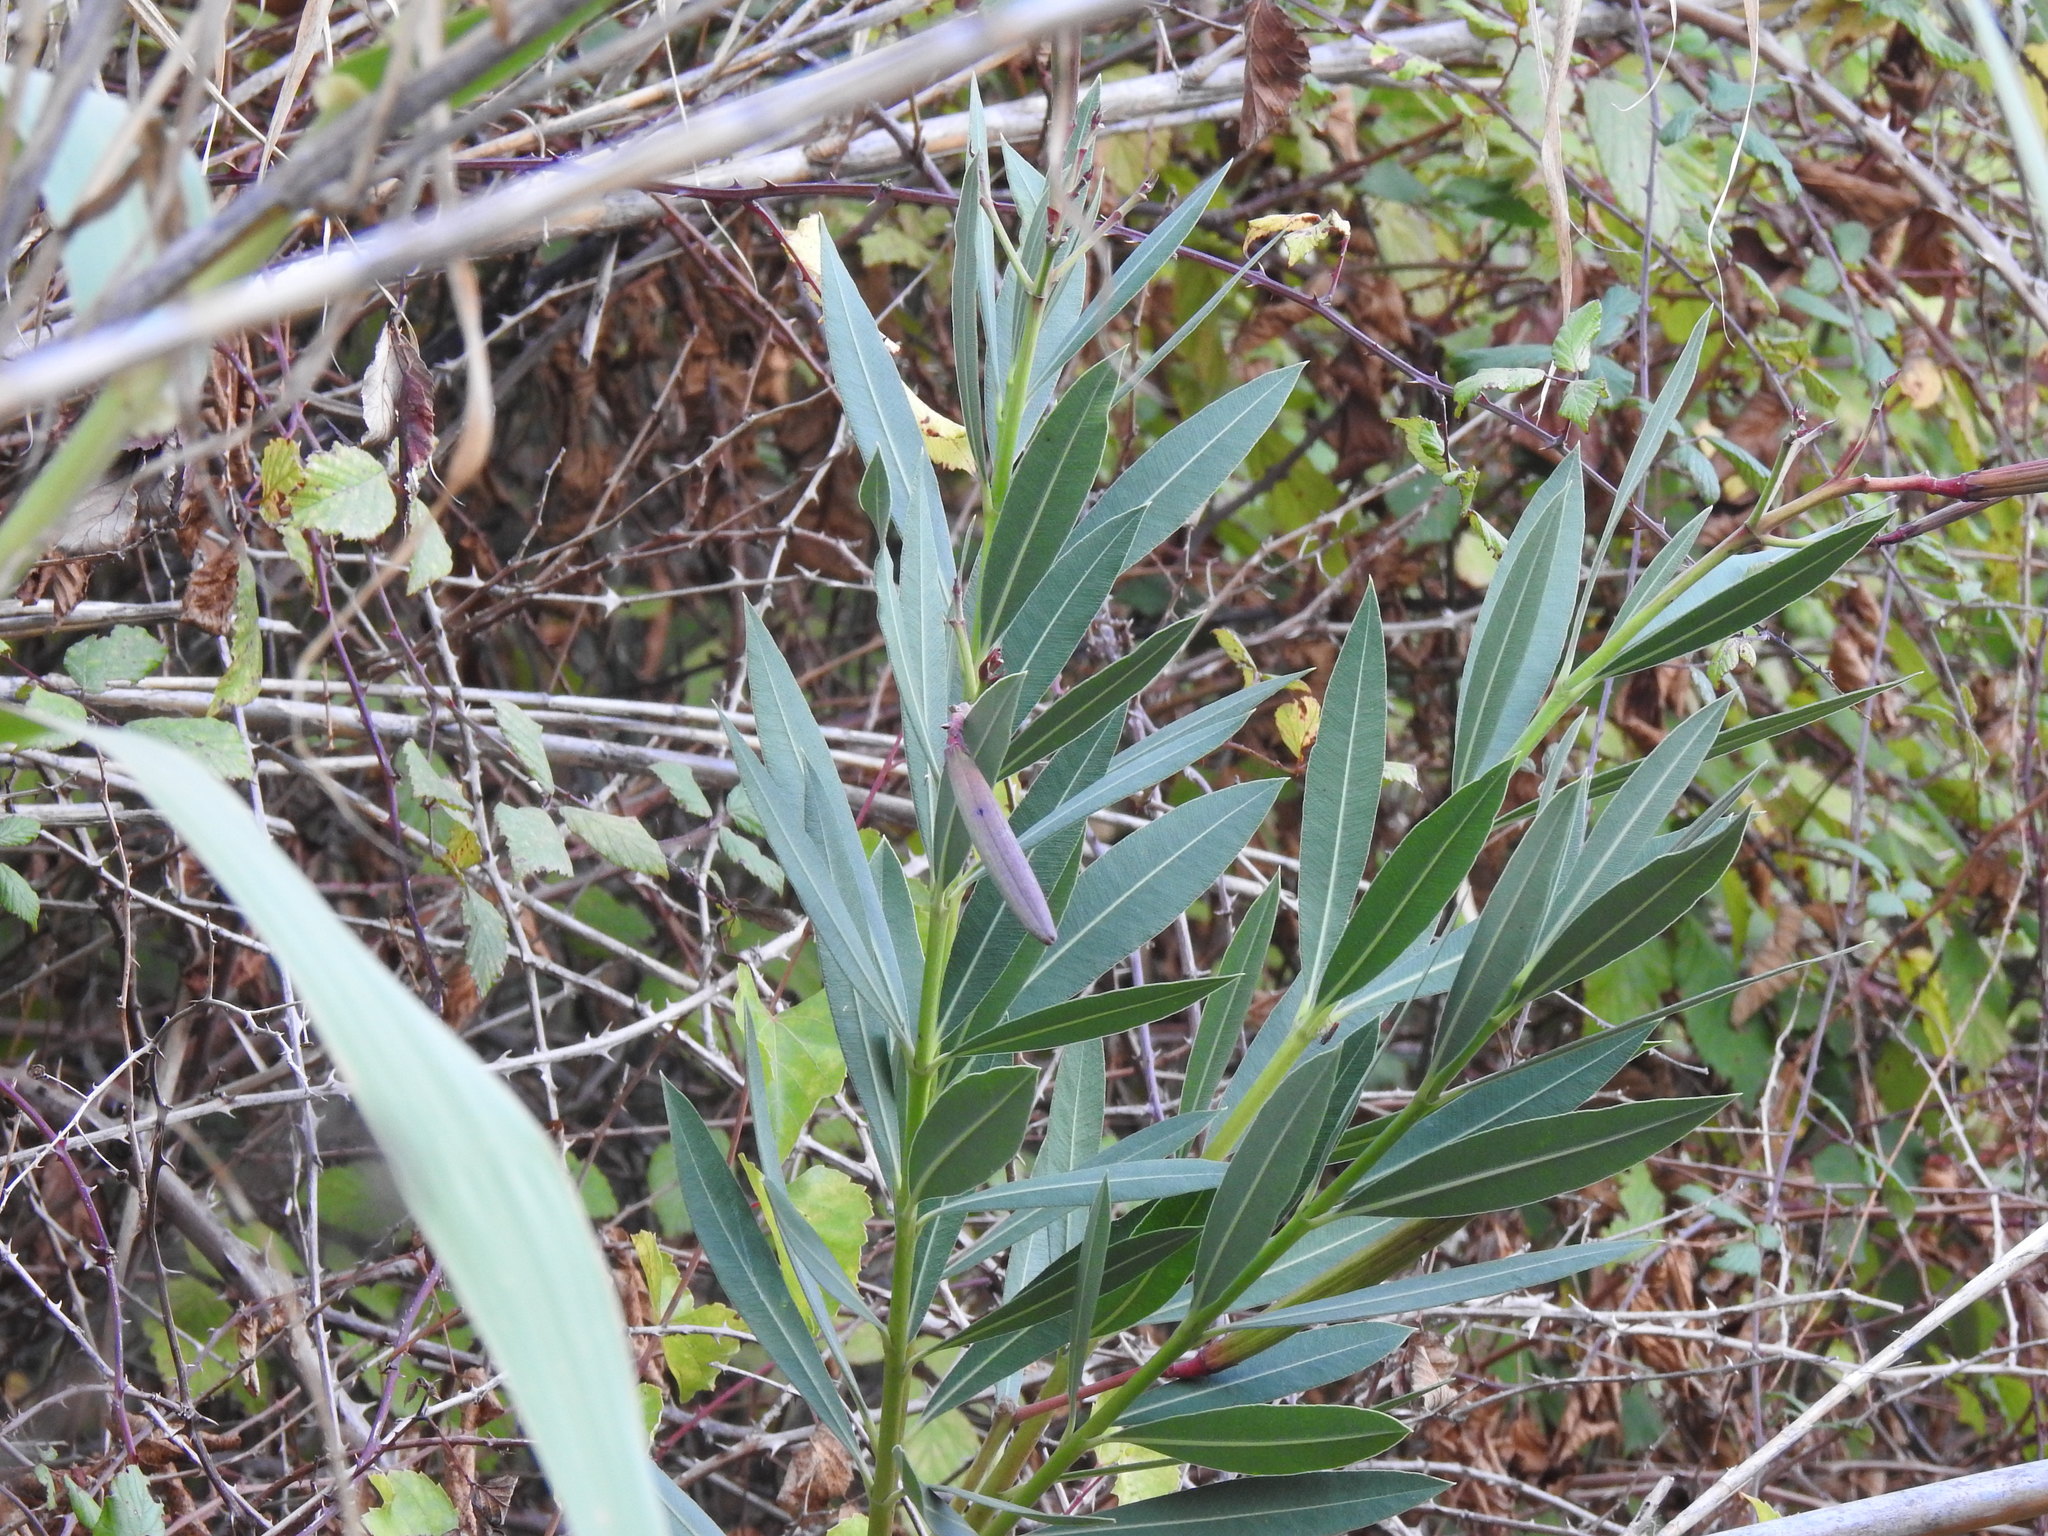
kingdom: Plantae
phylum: Tracheophyta
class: Magnoliopsida
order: Gentianales
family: Apocynaceae
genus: Nerium
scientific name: Nerium oleander
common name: Oleander
